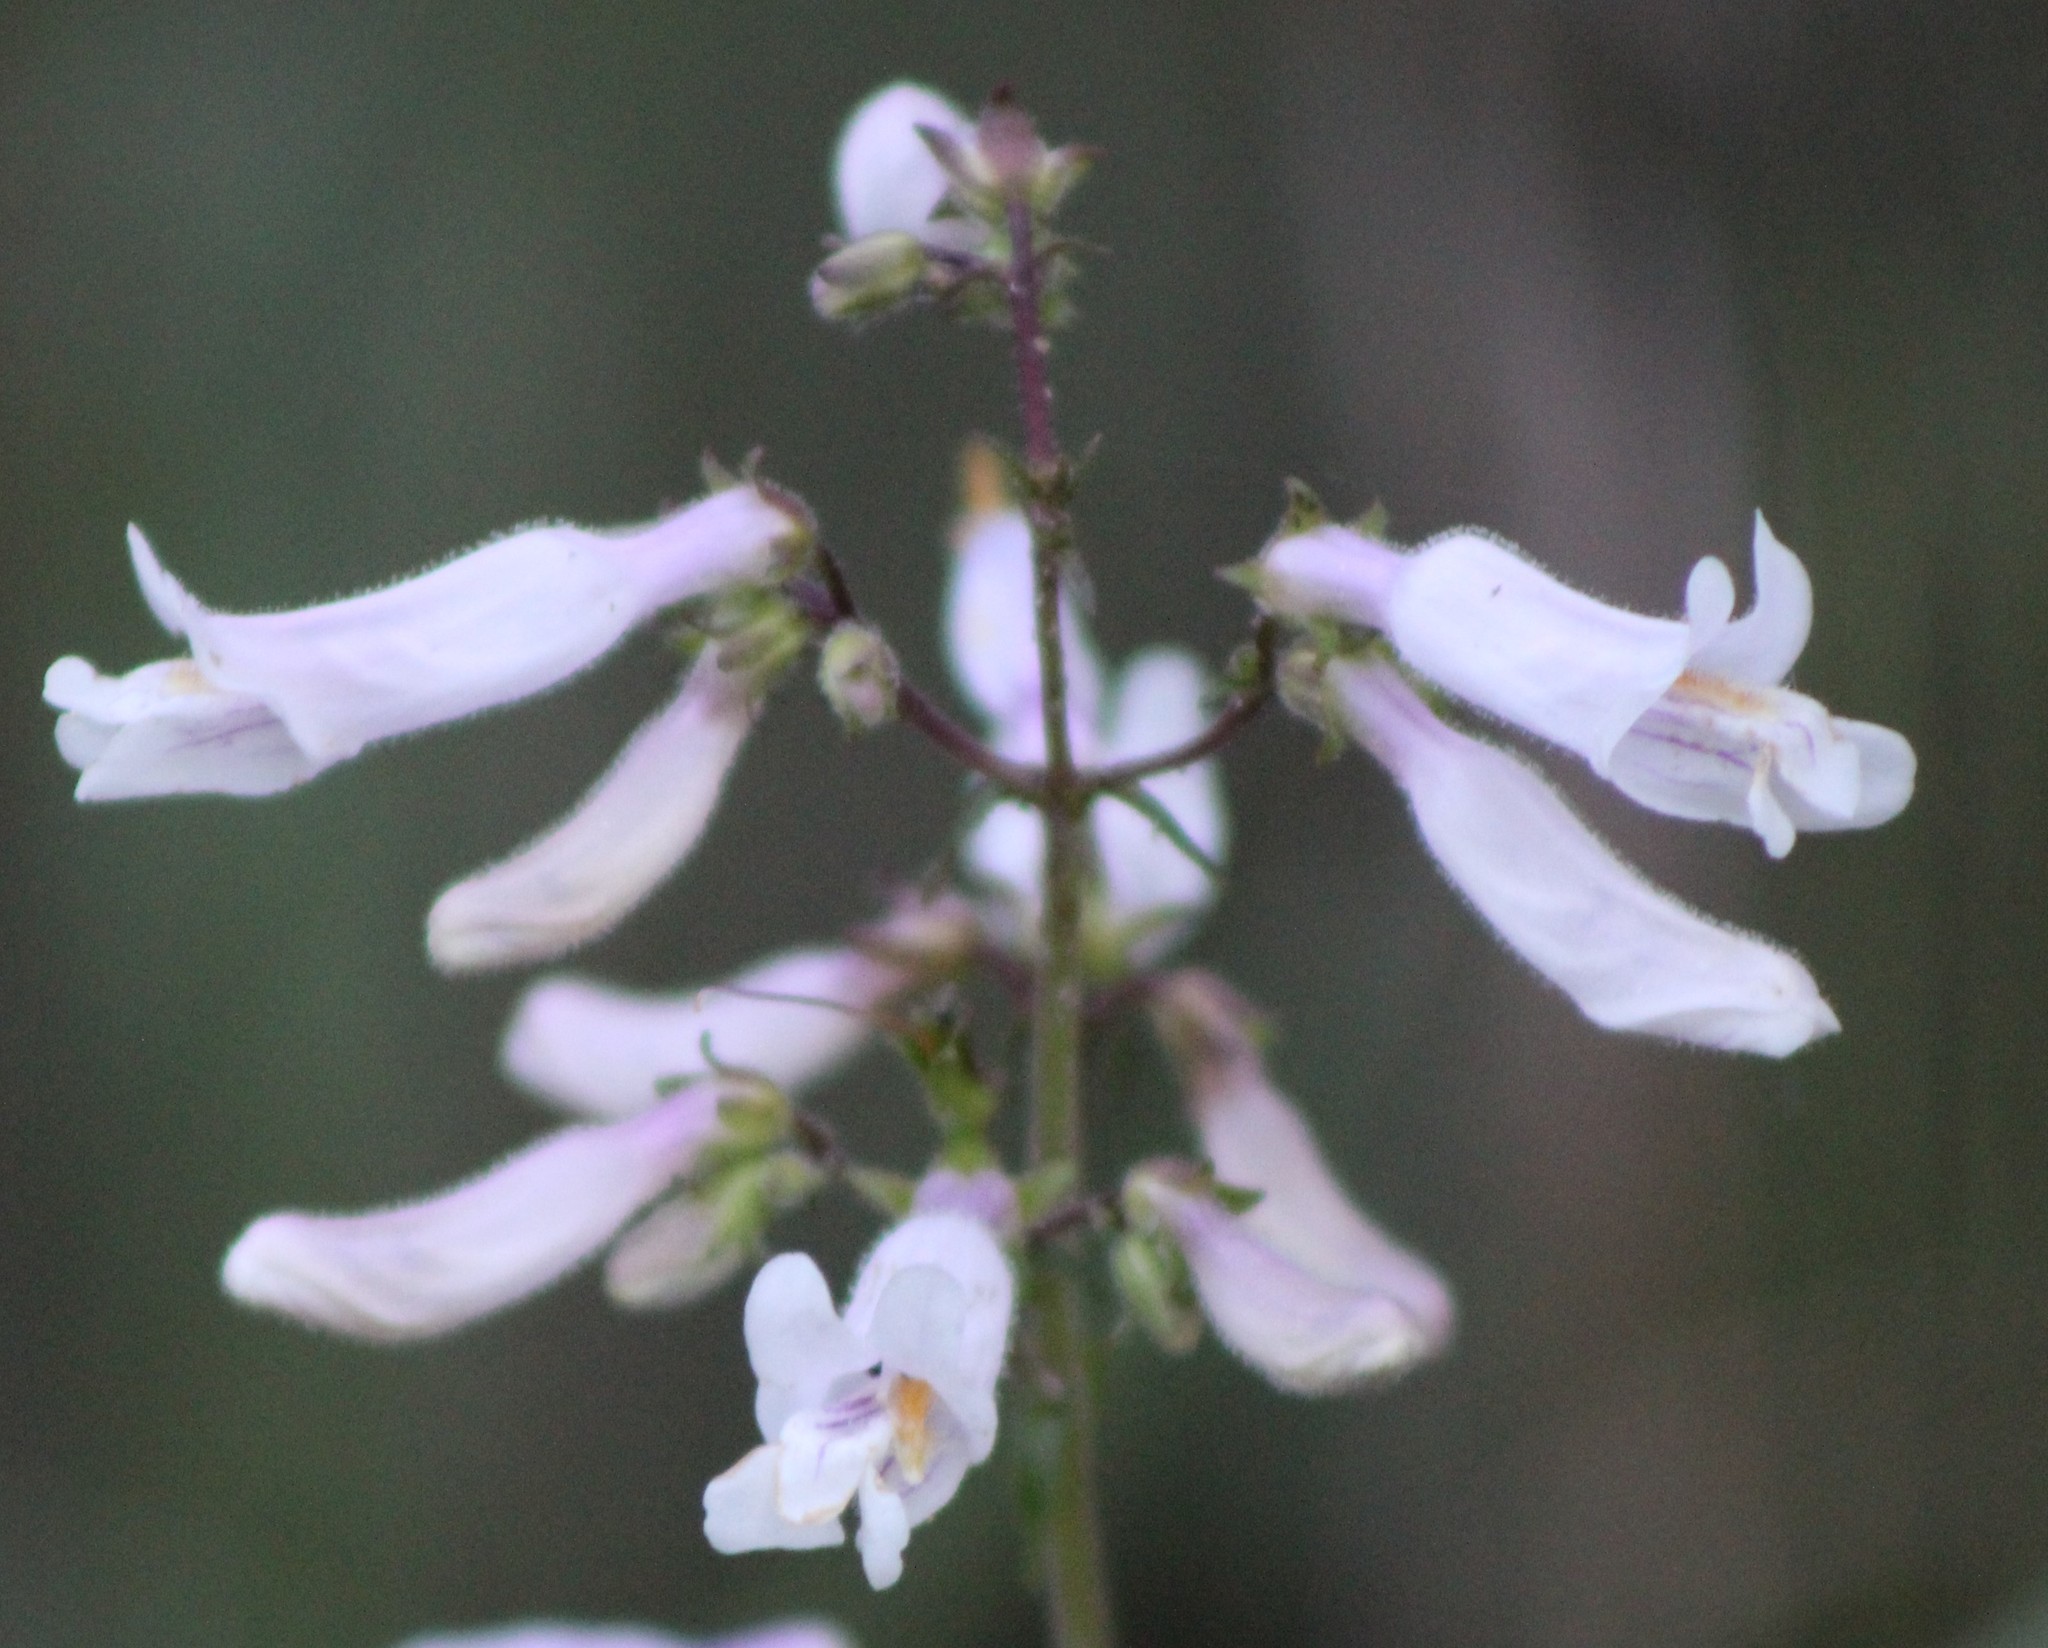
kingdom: Plantae
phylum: Tracheophyta
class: Magnoliopsida
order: Lamiales
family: Plantaginaceae
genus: Penstemon
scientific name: Penstemon laxiflorus
